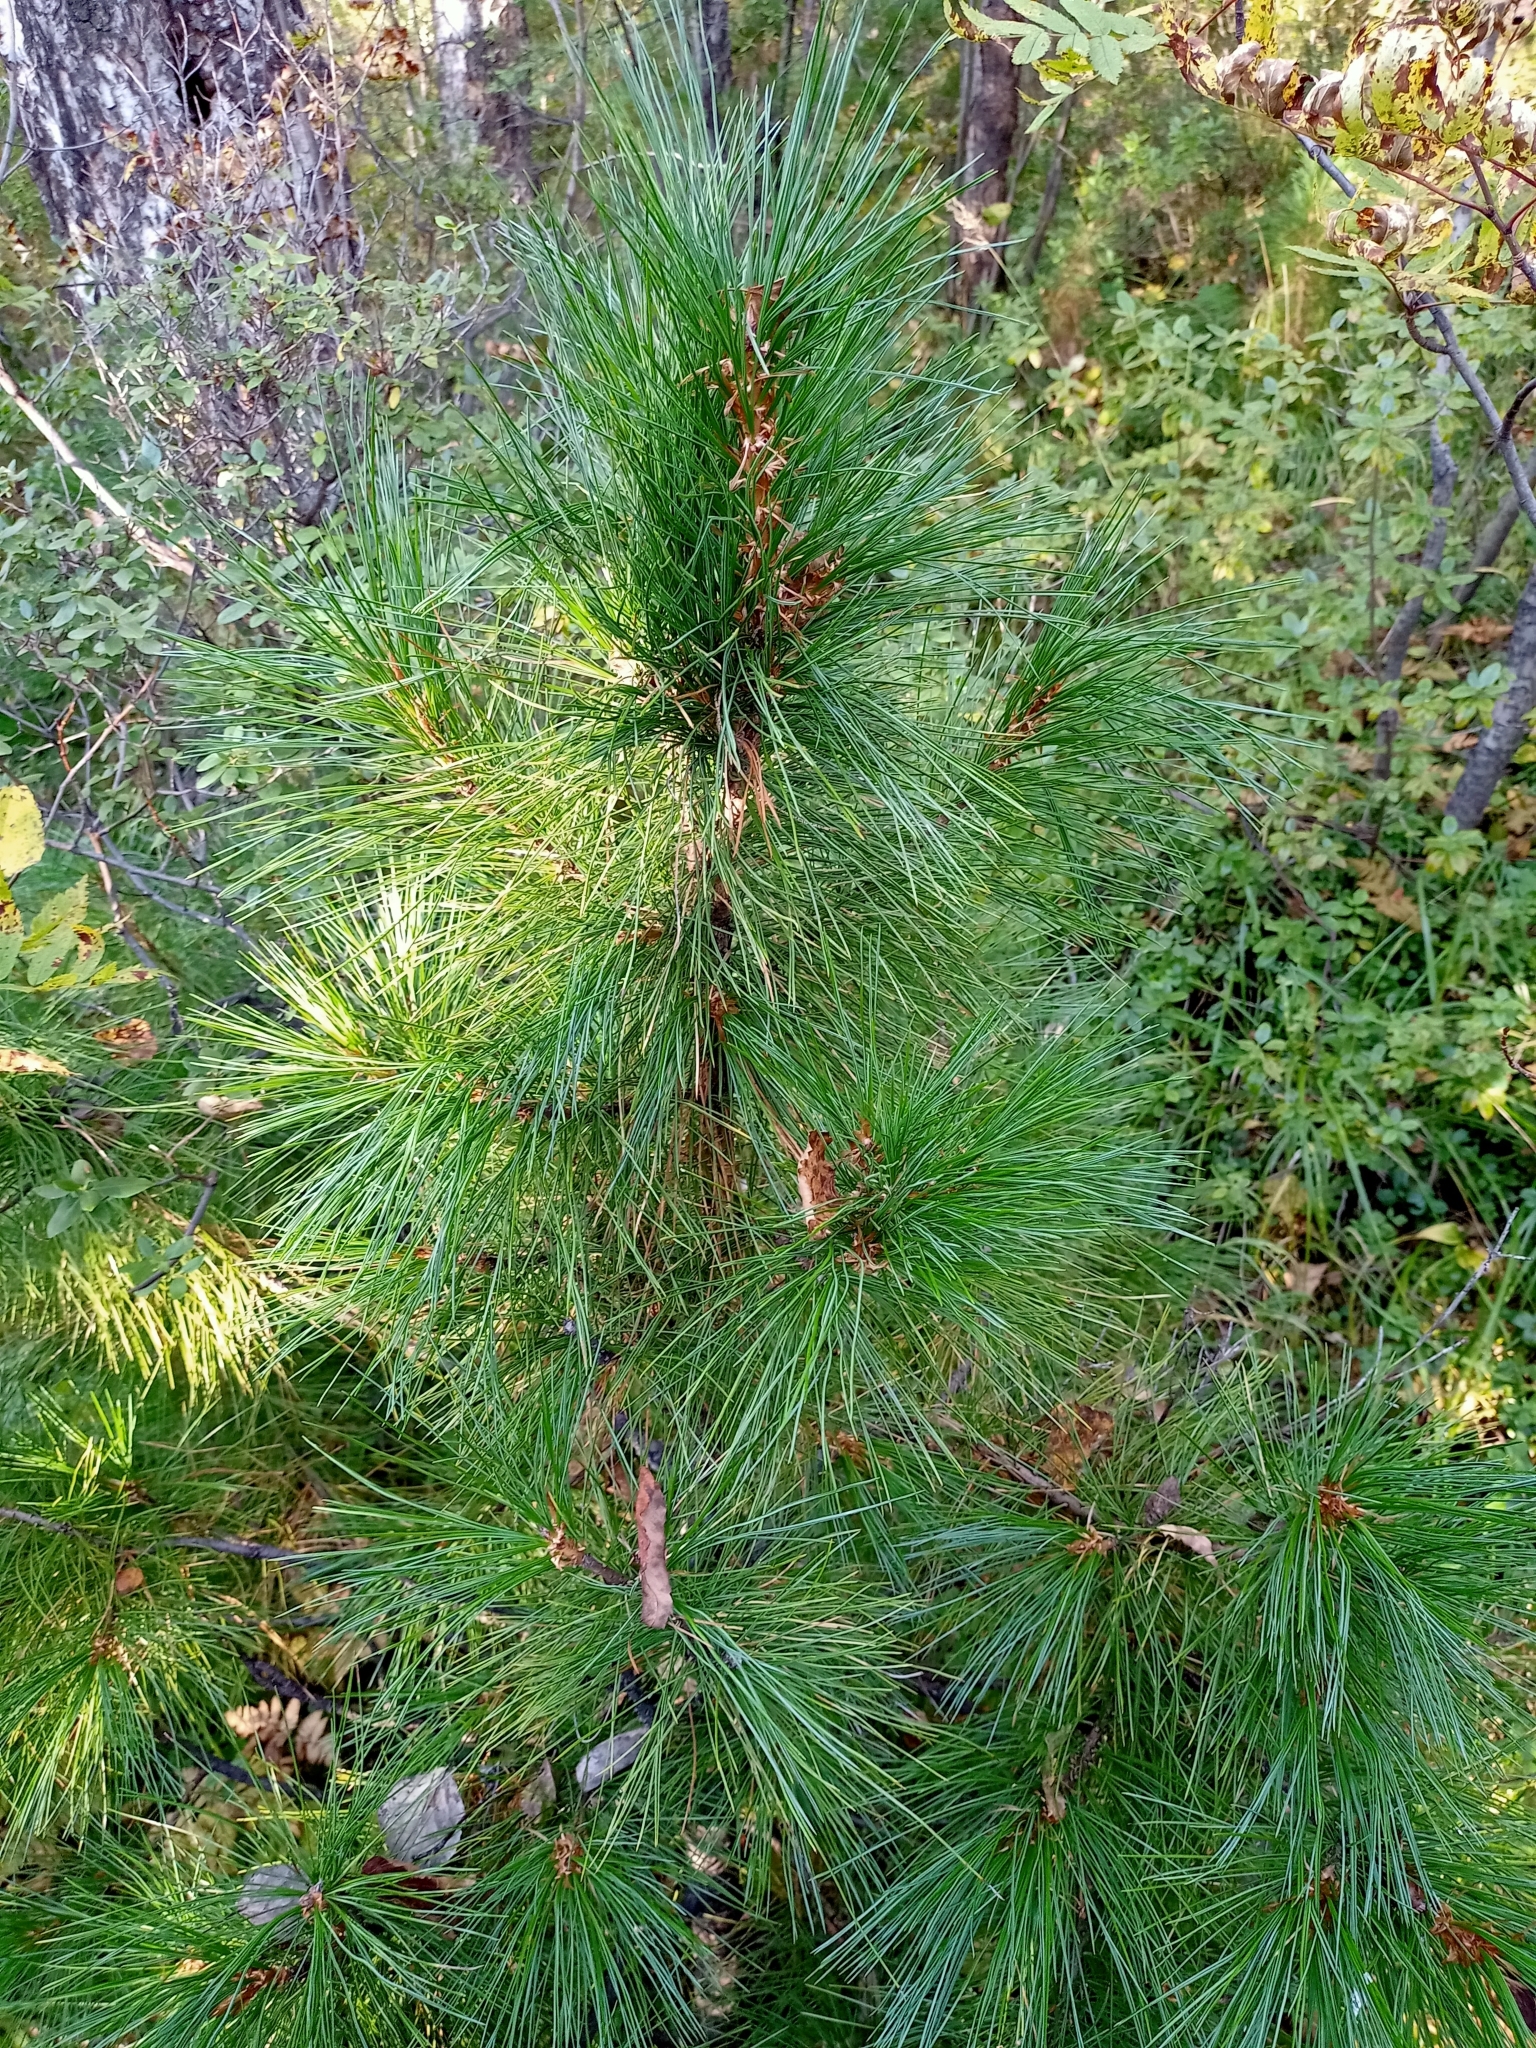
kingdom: Plantae
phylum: Tracheophyta
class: Pinopsida
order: Pinales
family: Pinaceae
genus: Pinus
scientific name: Pinus sibirica
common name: Siberian pine
